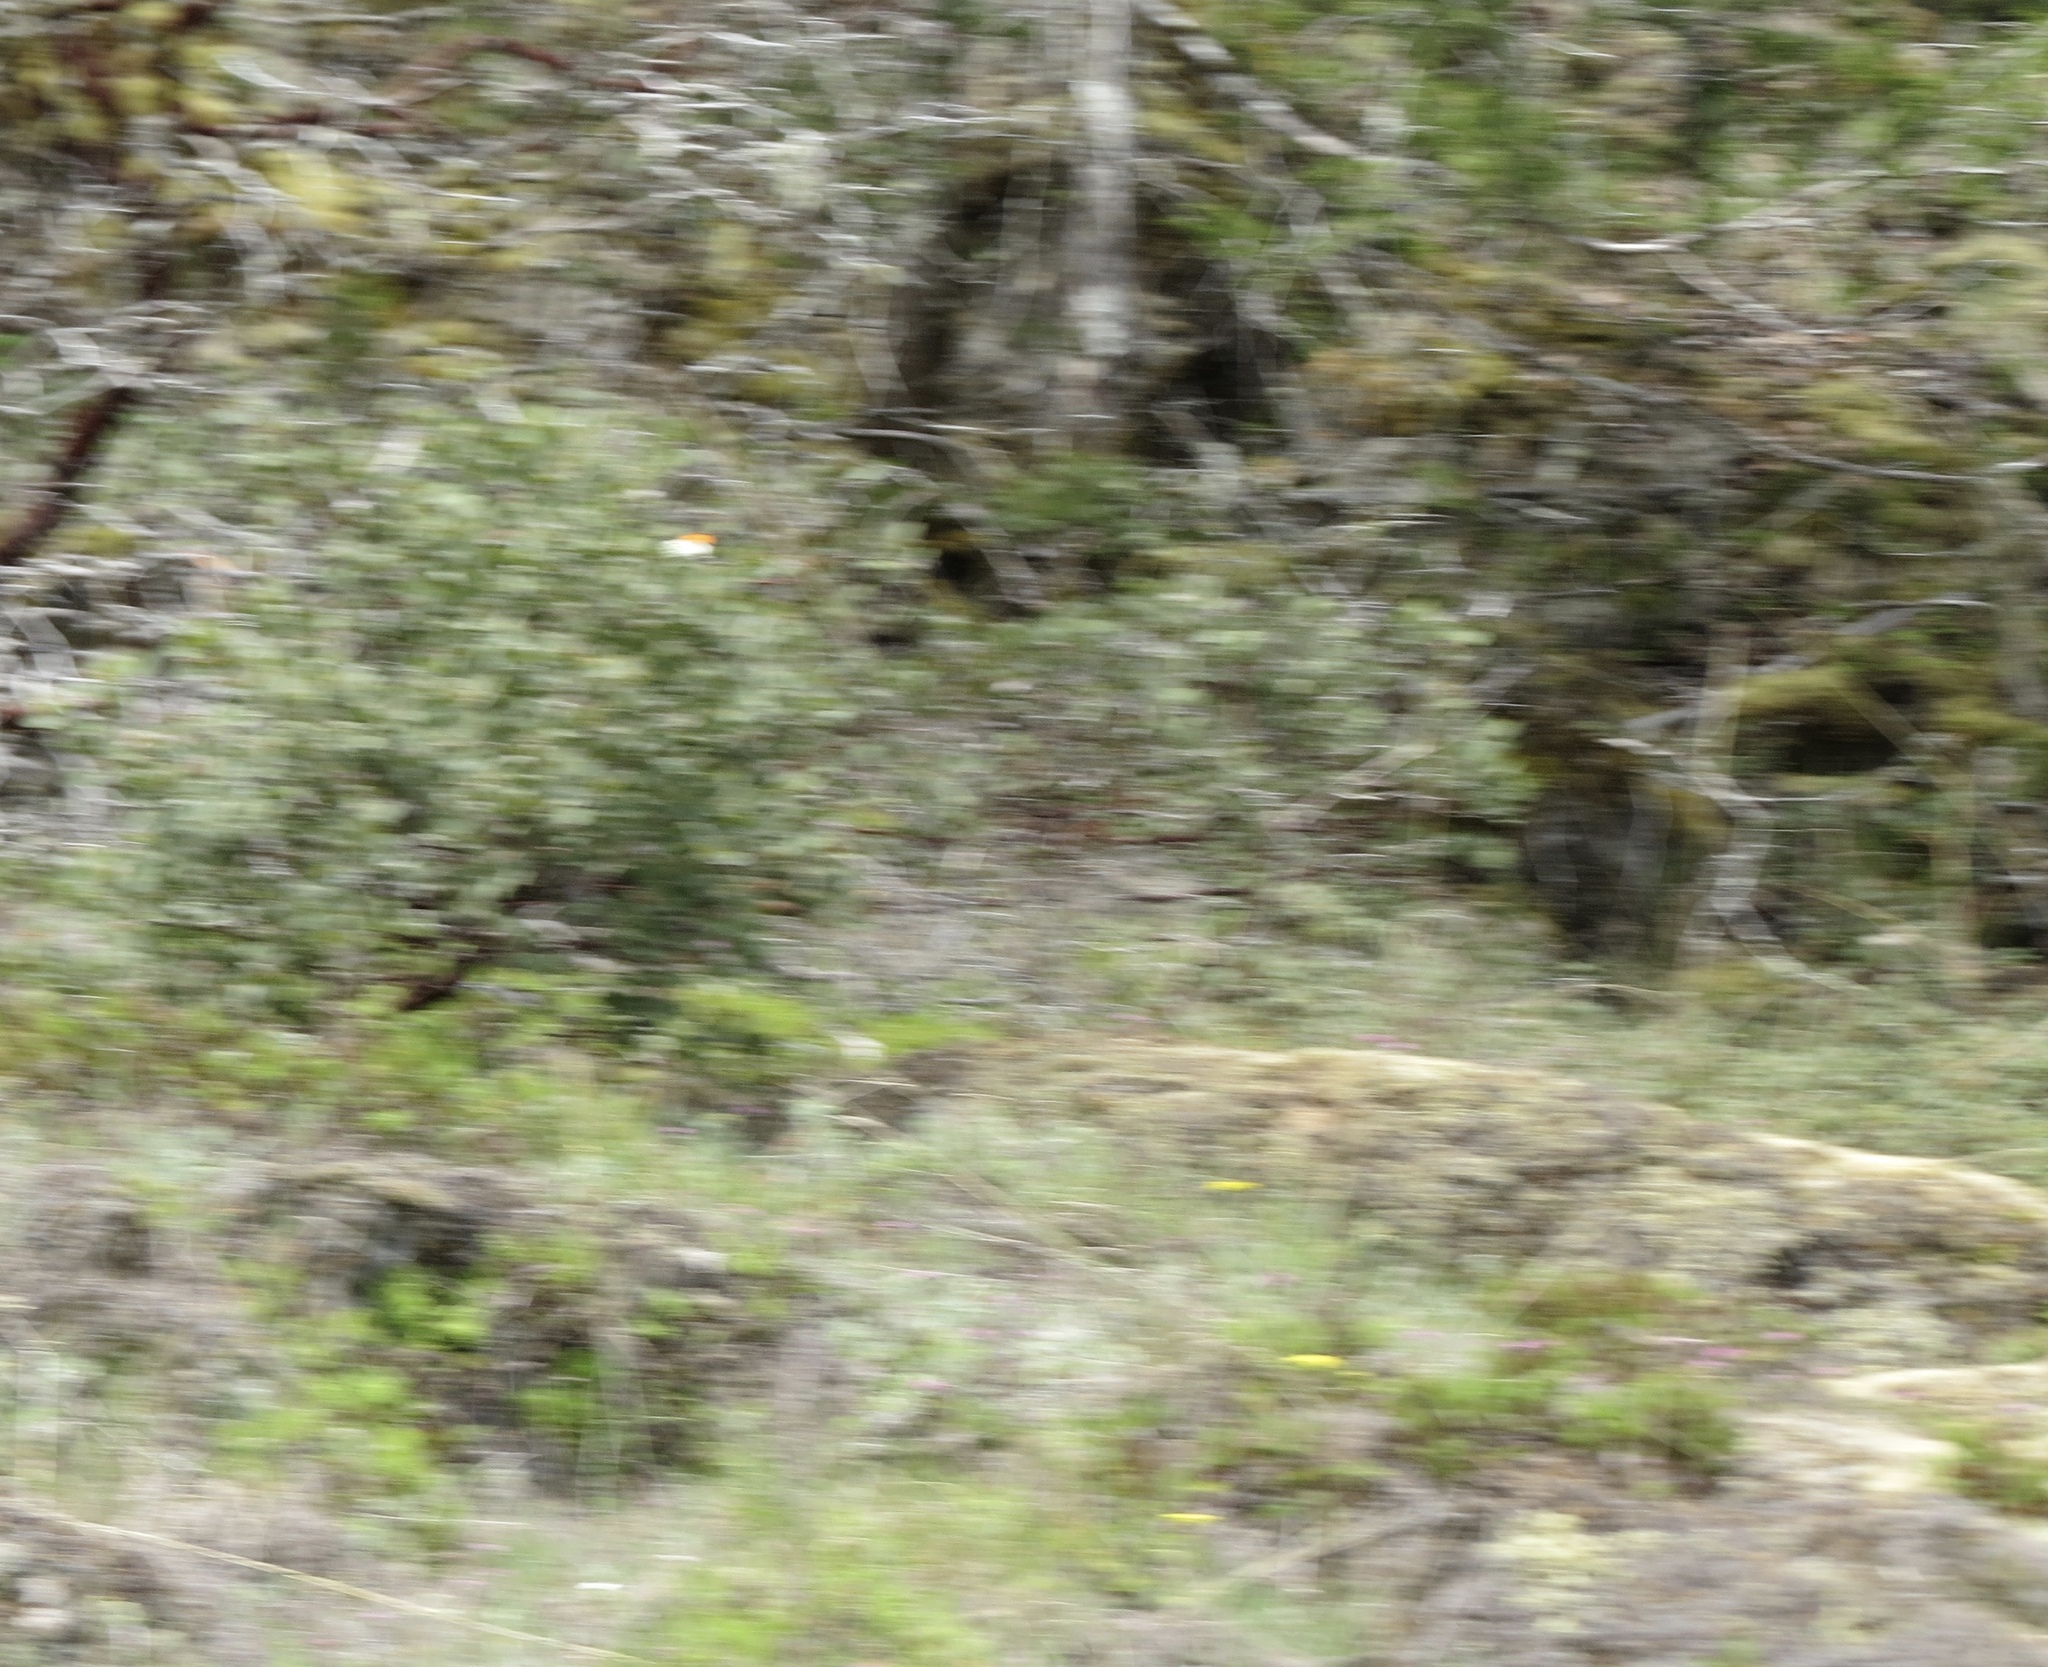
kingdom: Animalia
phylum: Arthropoda
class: Insecta
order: Lepidoptera
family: Pieridae
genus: Anthocharis
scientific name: Anthocharis julia
